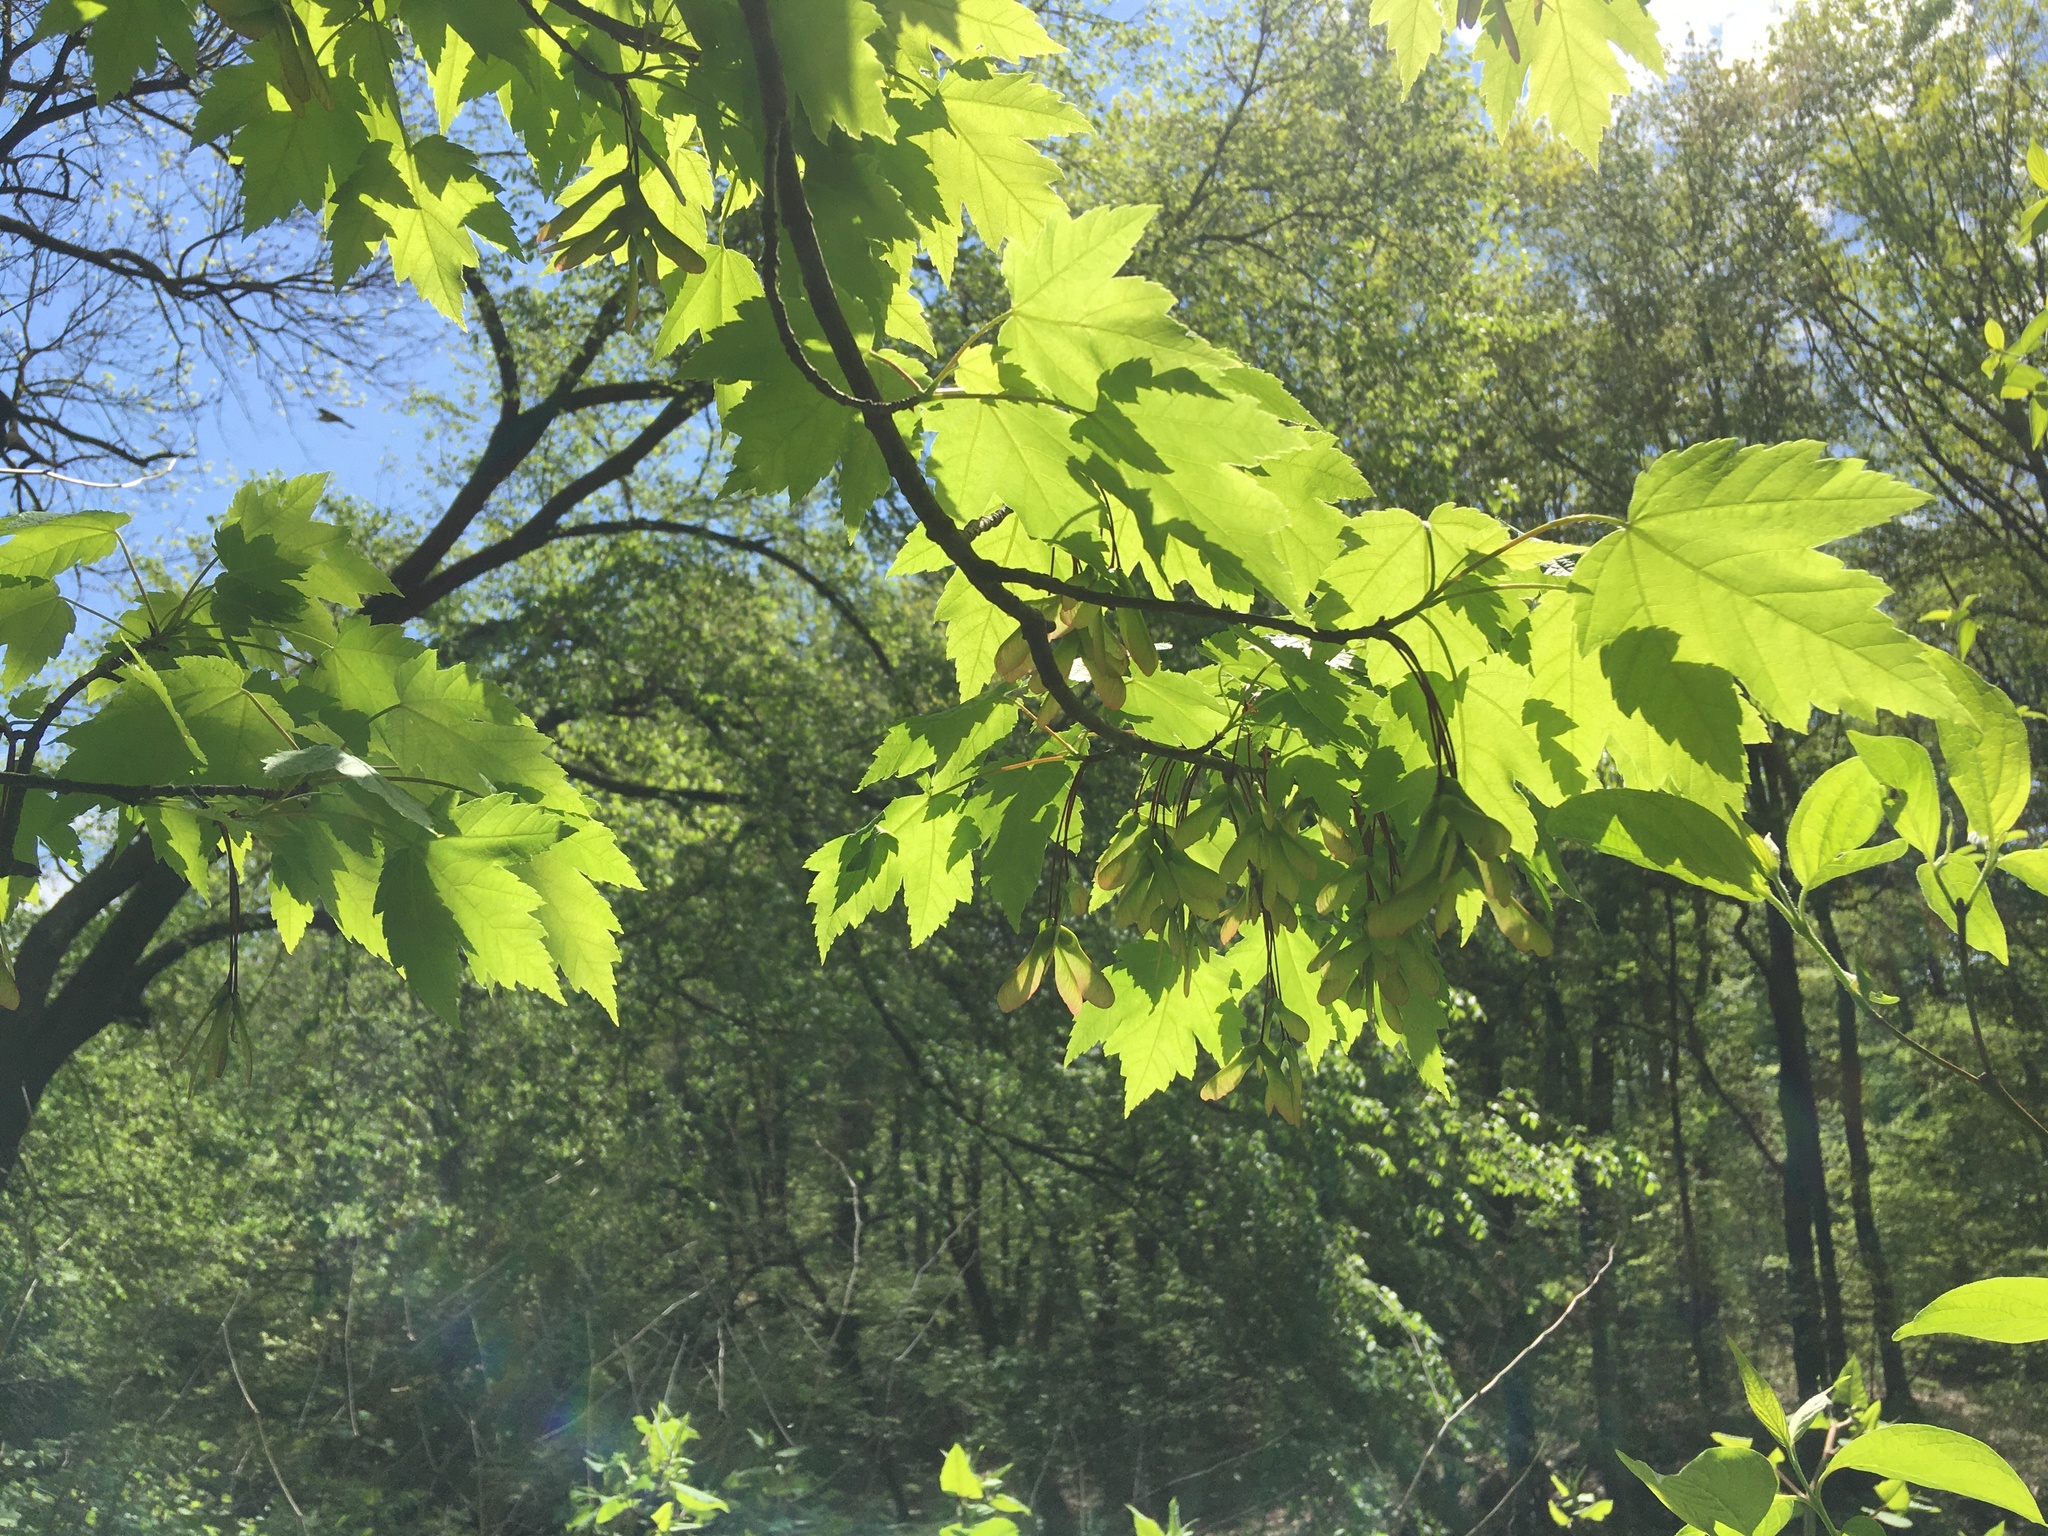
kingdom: Plantae
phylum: Tracheophyta
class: Magnoliopsida
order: Sapindales
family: Sapindaceae
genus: Acer
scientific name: Acer rubrum
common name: Red maple
